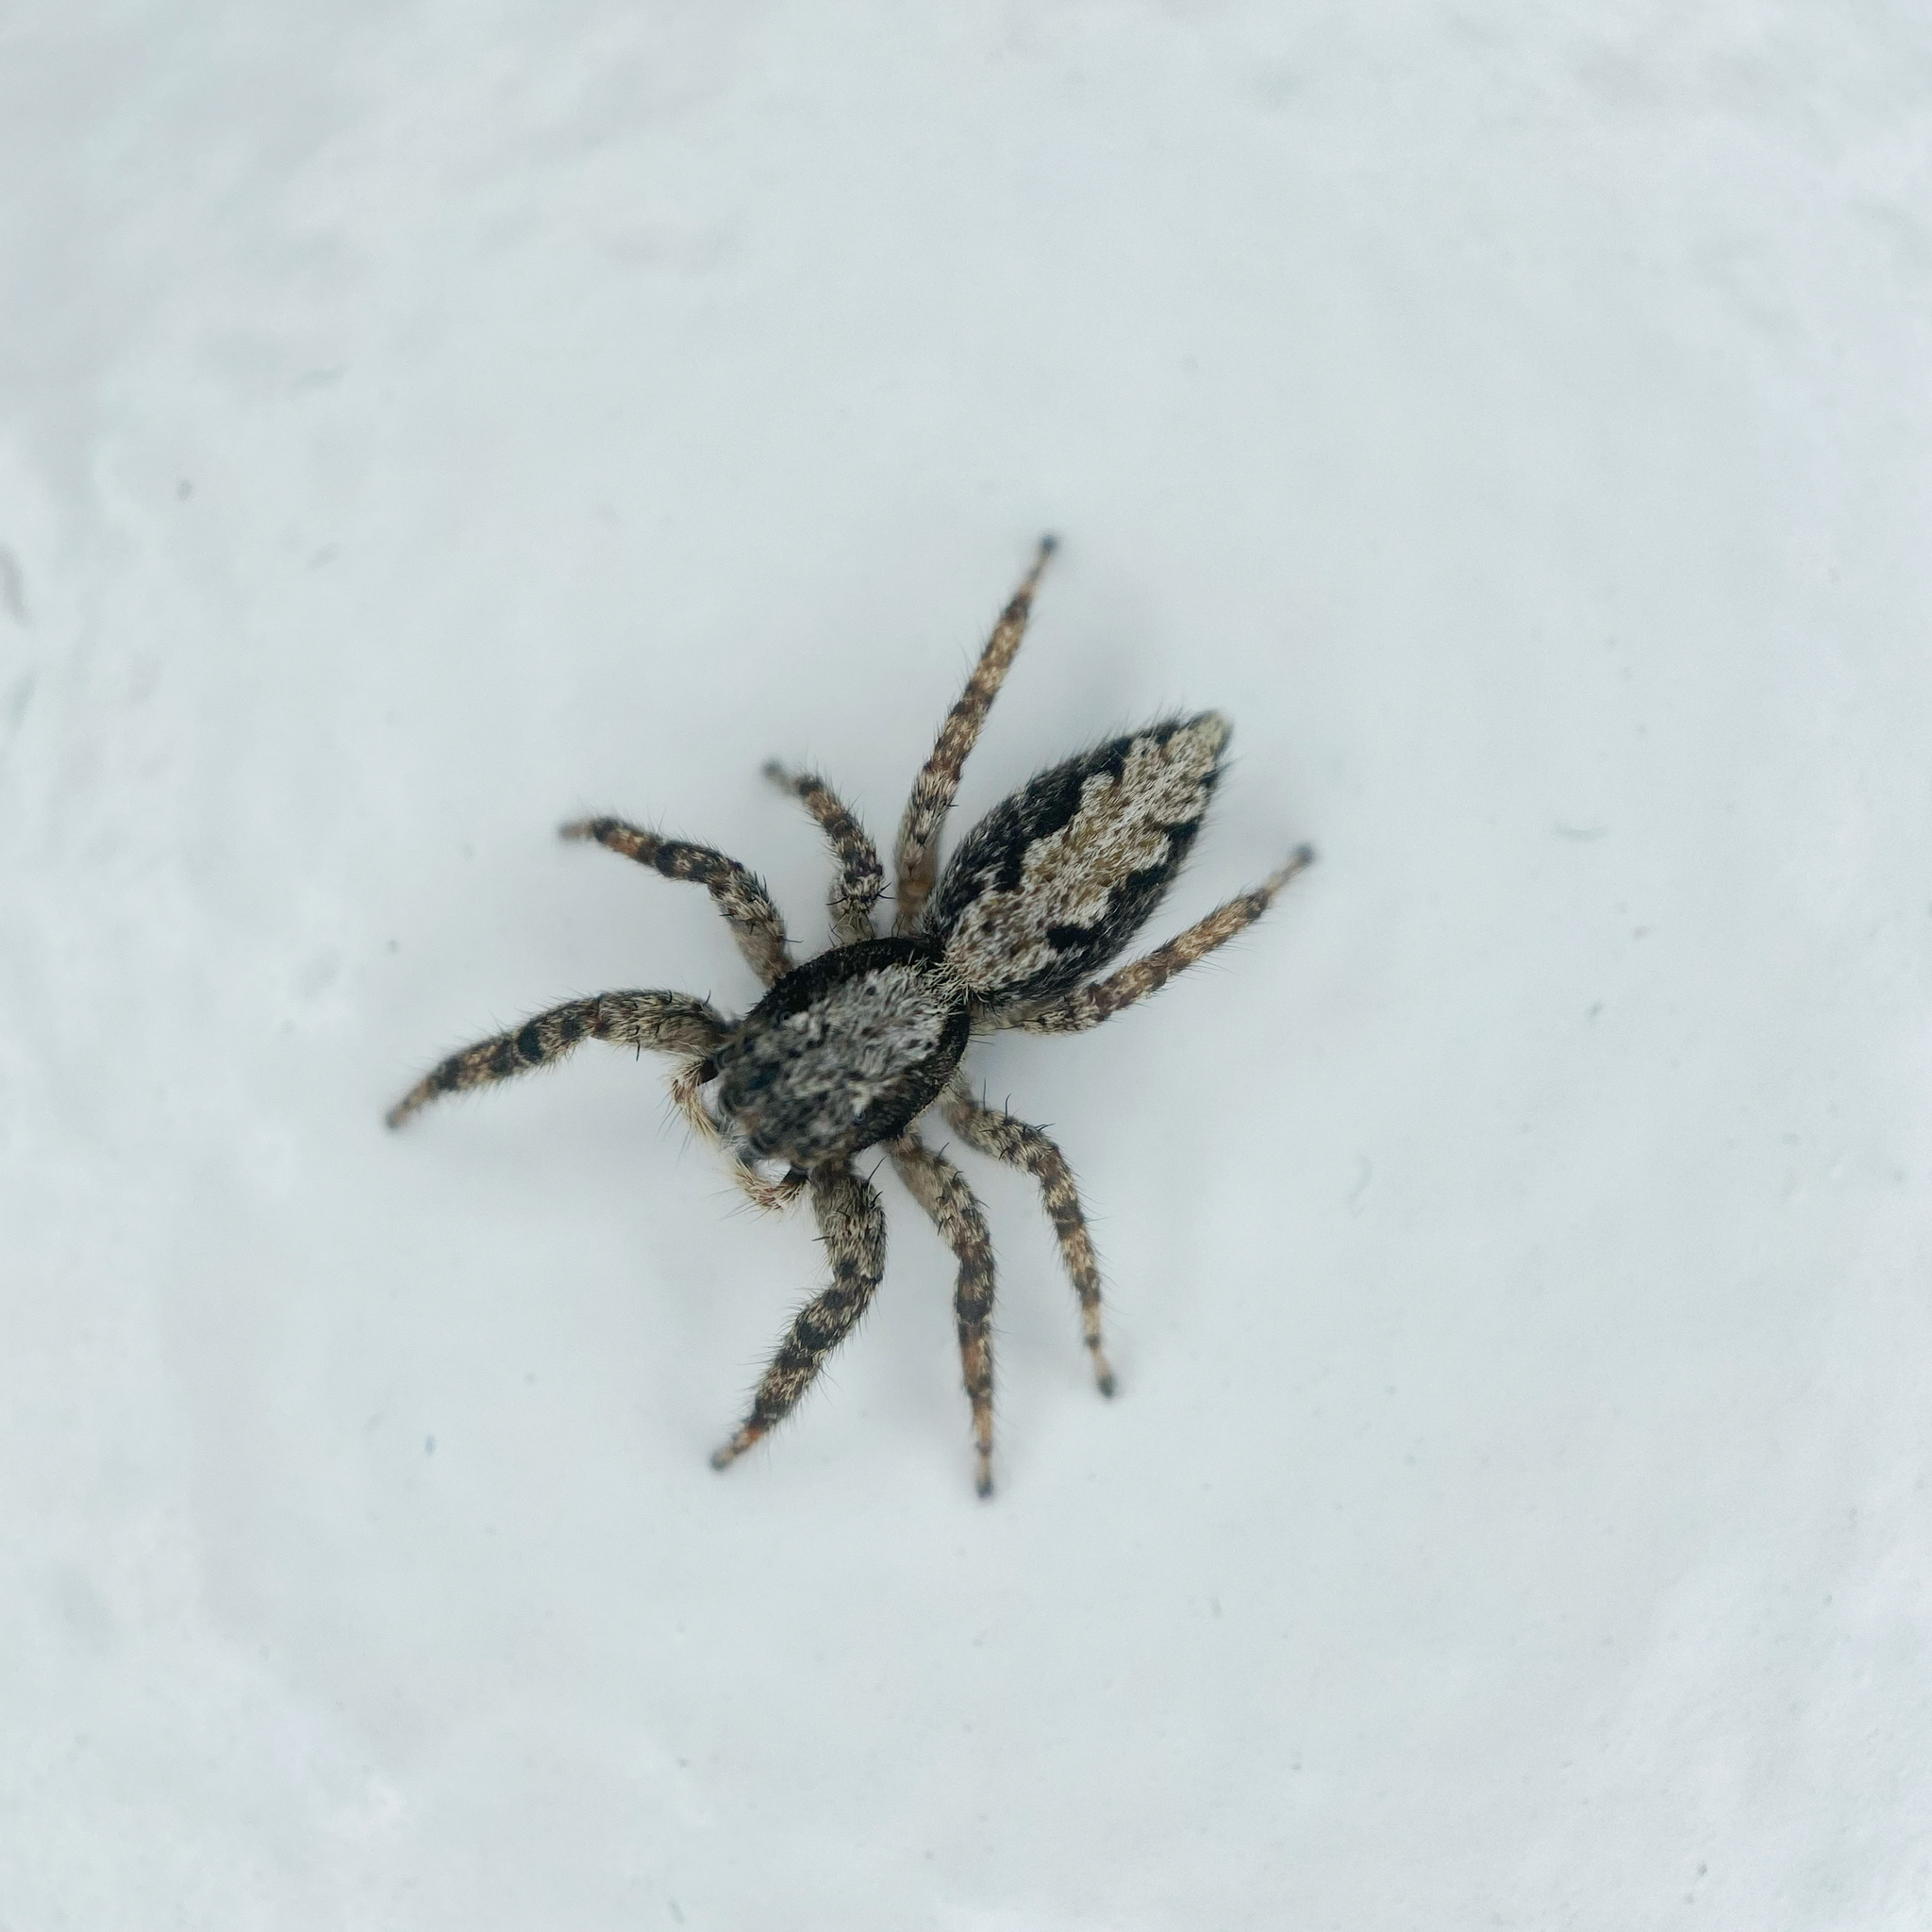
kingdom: Animalia
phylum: Arthropoda
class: Arachnida
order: Araneae
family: Salticidae
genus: Platycryptus
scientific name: Platycryptus californicus
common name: Jumping spiders
